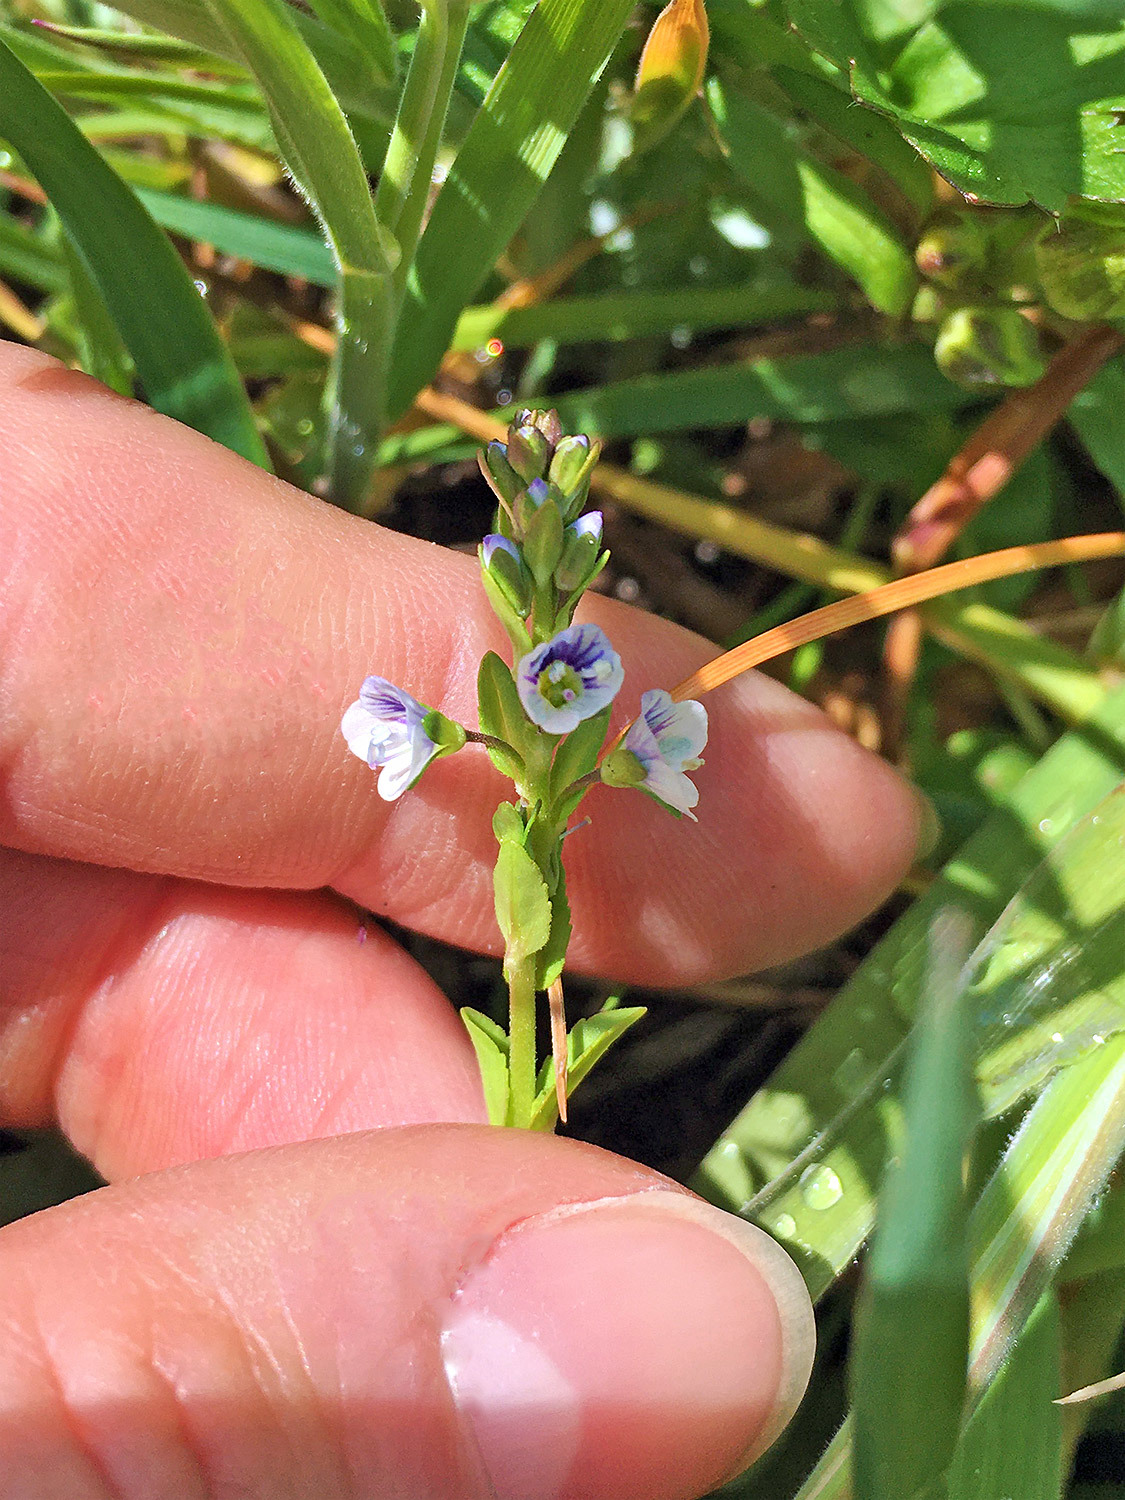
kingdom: Plantae
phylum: Tracheophyta
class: Magnoliopsida
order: Lamiales
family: Plantaginaceae
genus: Veronica
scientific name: Veronica serpyllifolia
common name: Thyme-leaved speedwell
